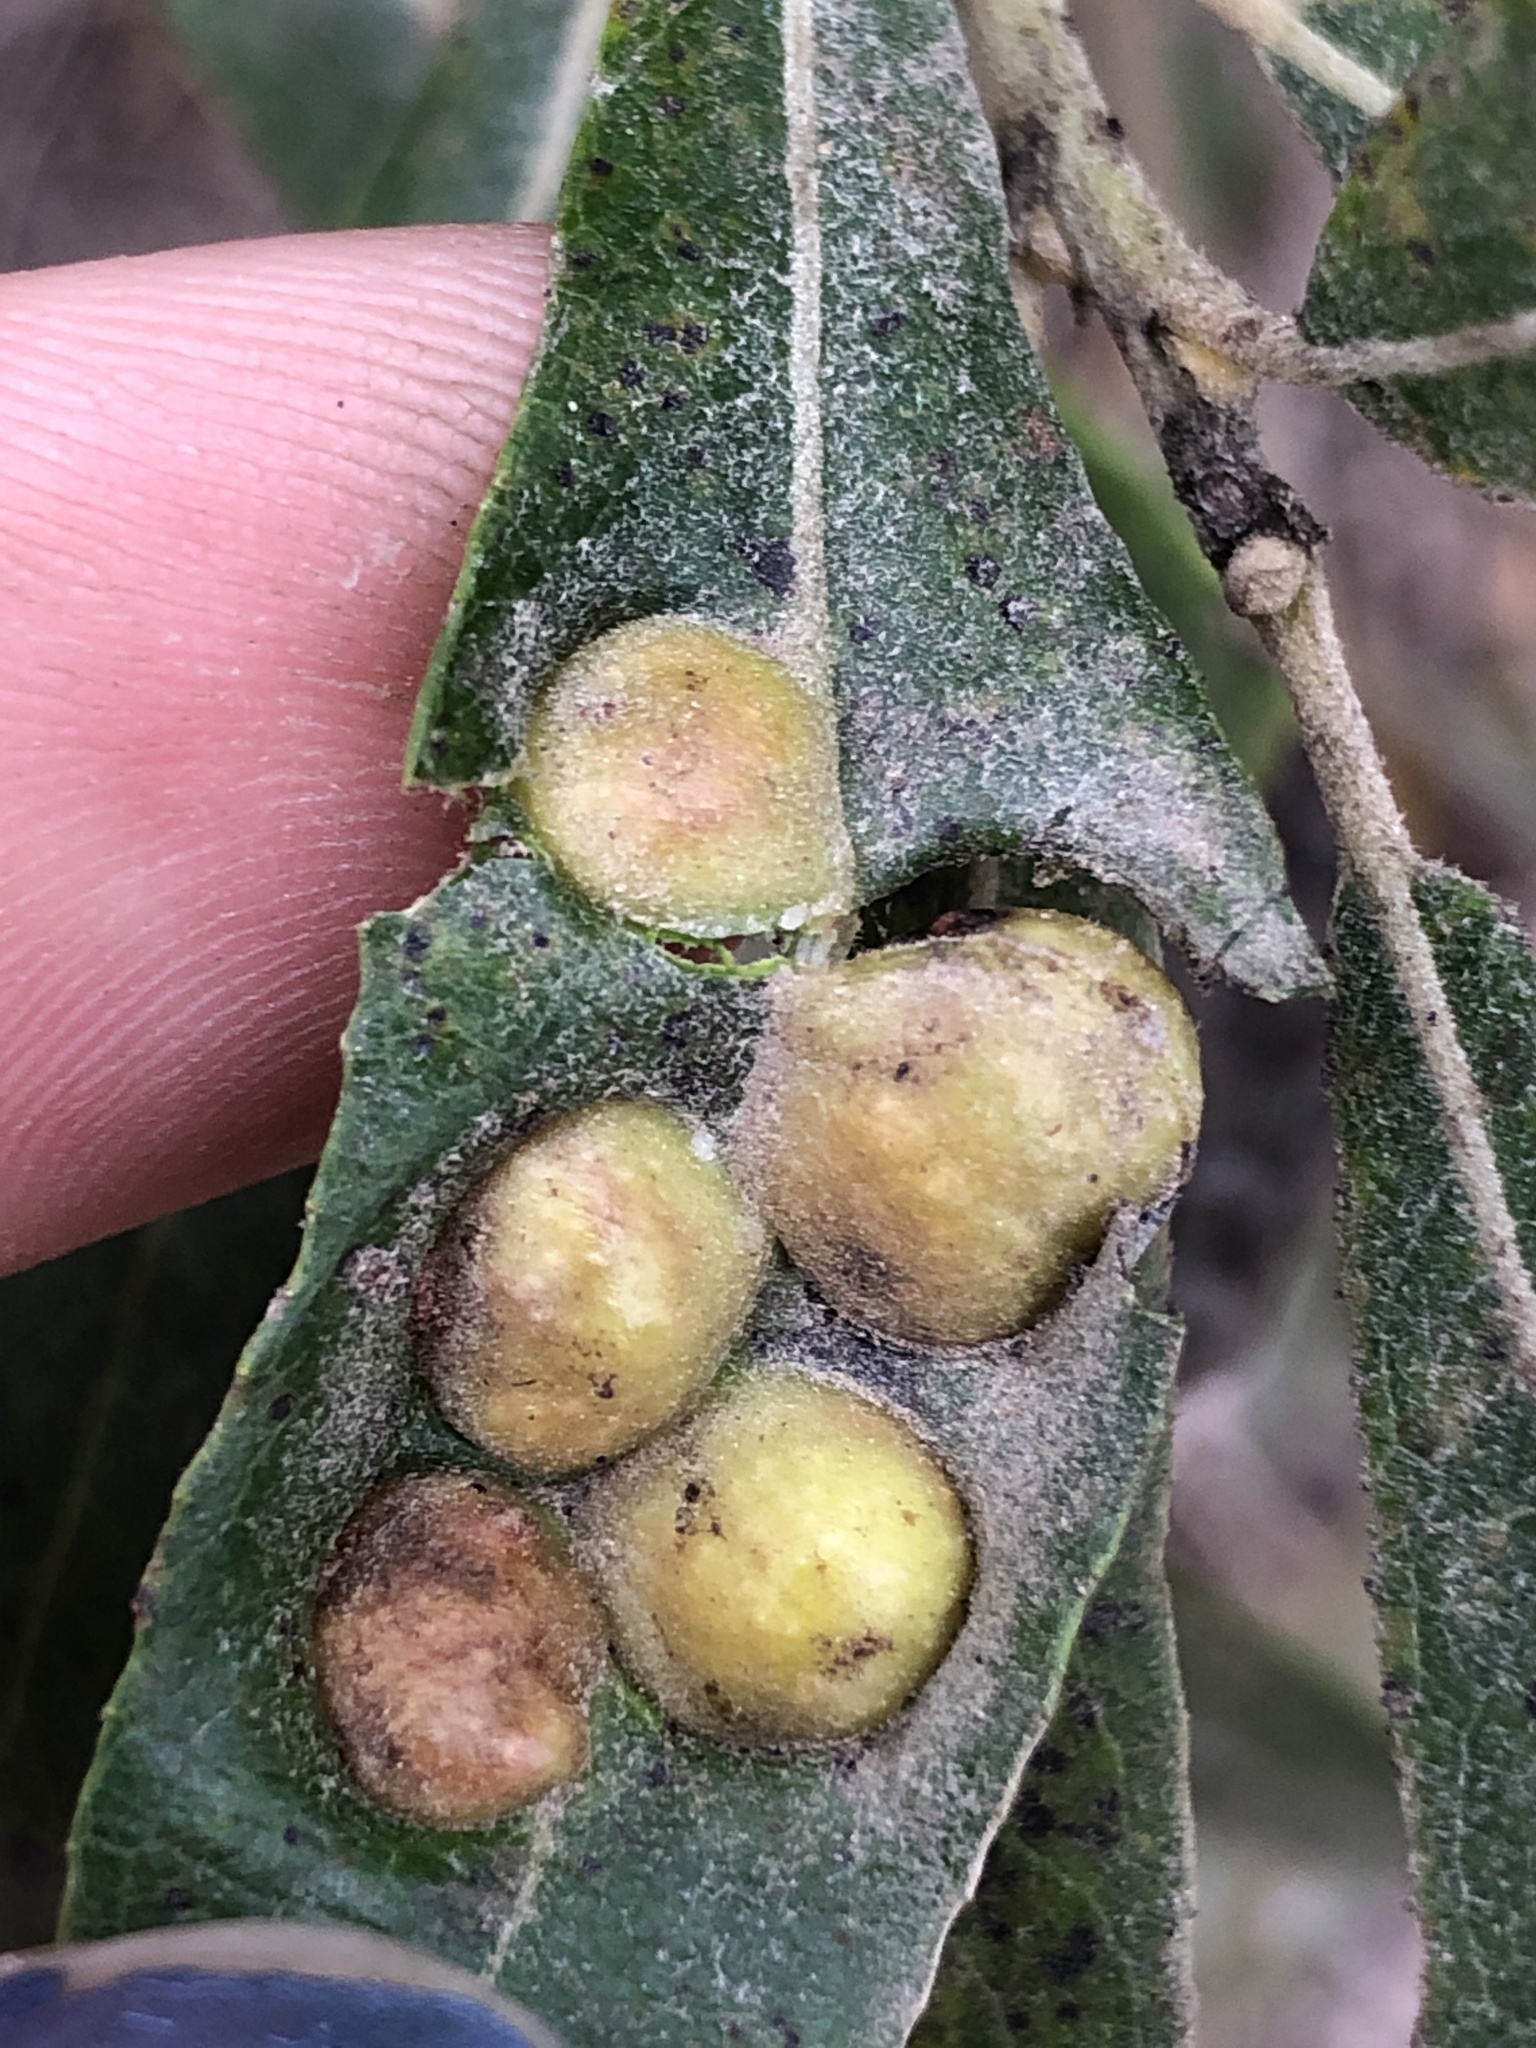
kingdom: Animalia
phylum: Arthropoda
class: Insecta
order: Hymenoptera
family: Tenthredinidae
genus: Euura
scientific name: Euura
